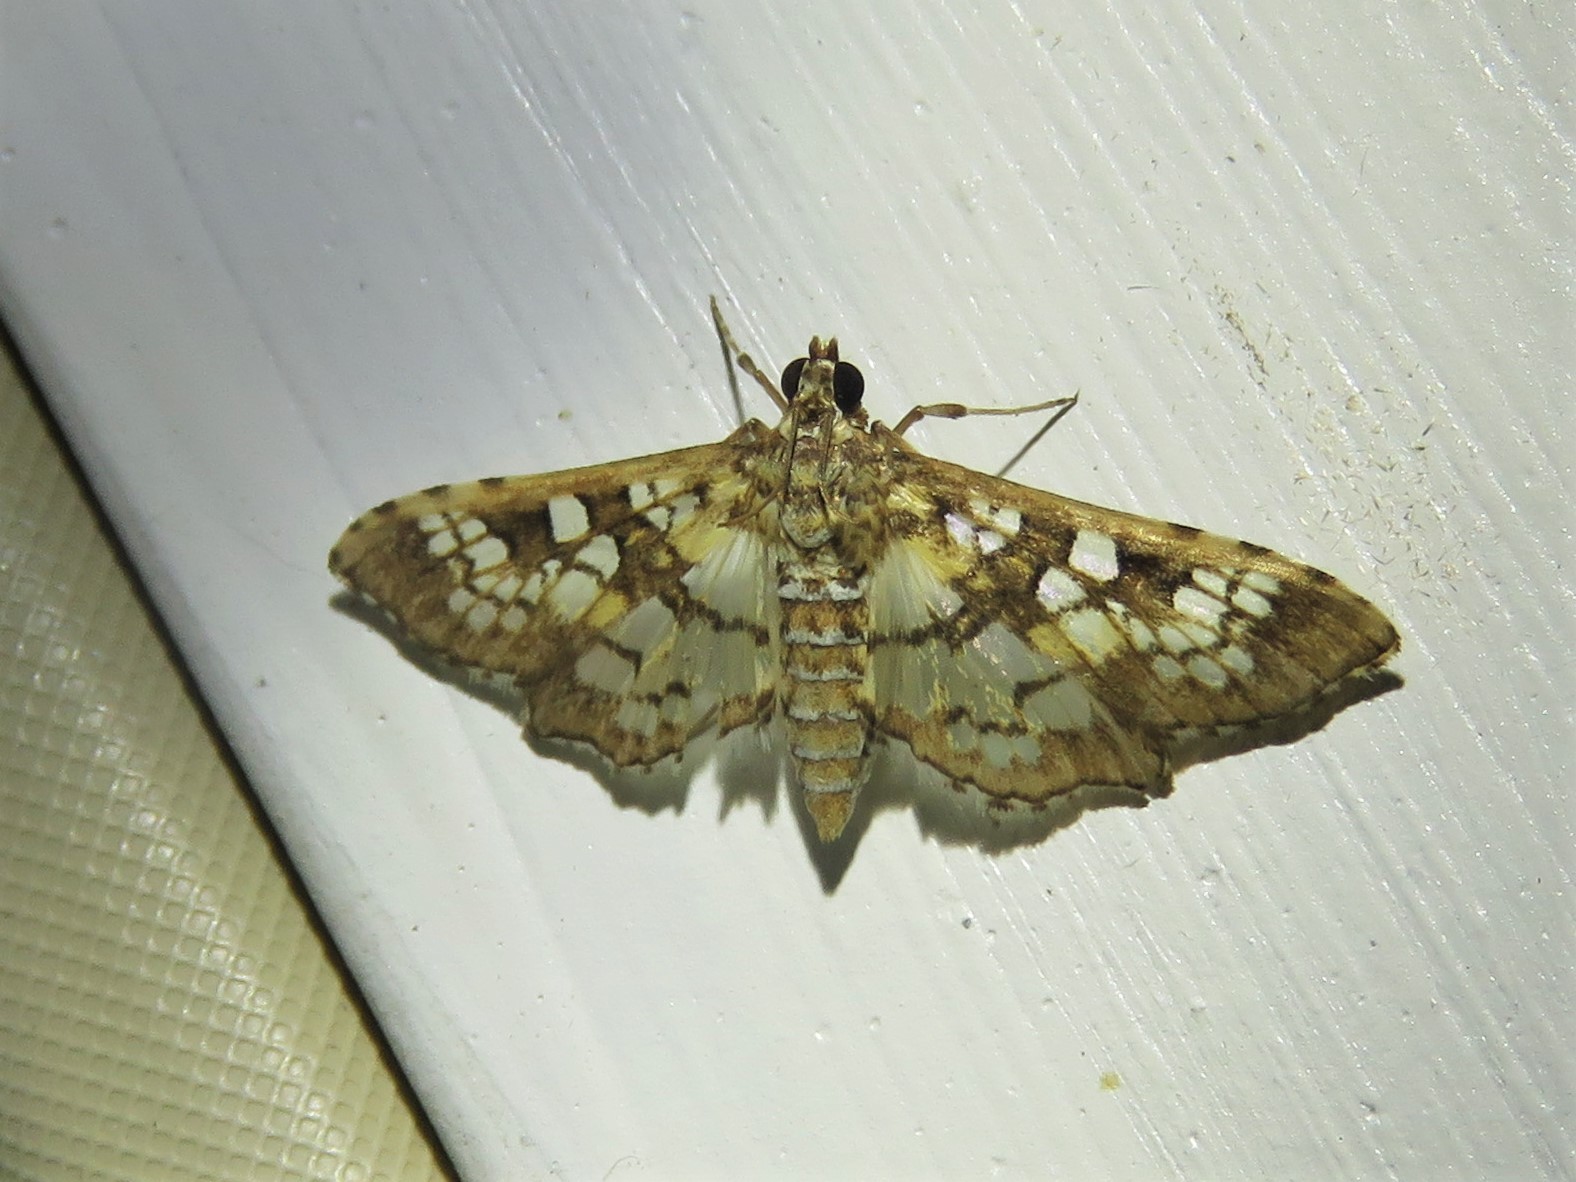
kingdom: Animalia
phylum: Arthropoda
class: Insecta
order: Lepidoptera
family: Crambidae
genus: Samea
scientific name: Samea ecclesialis
